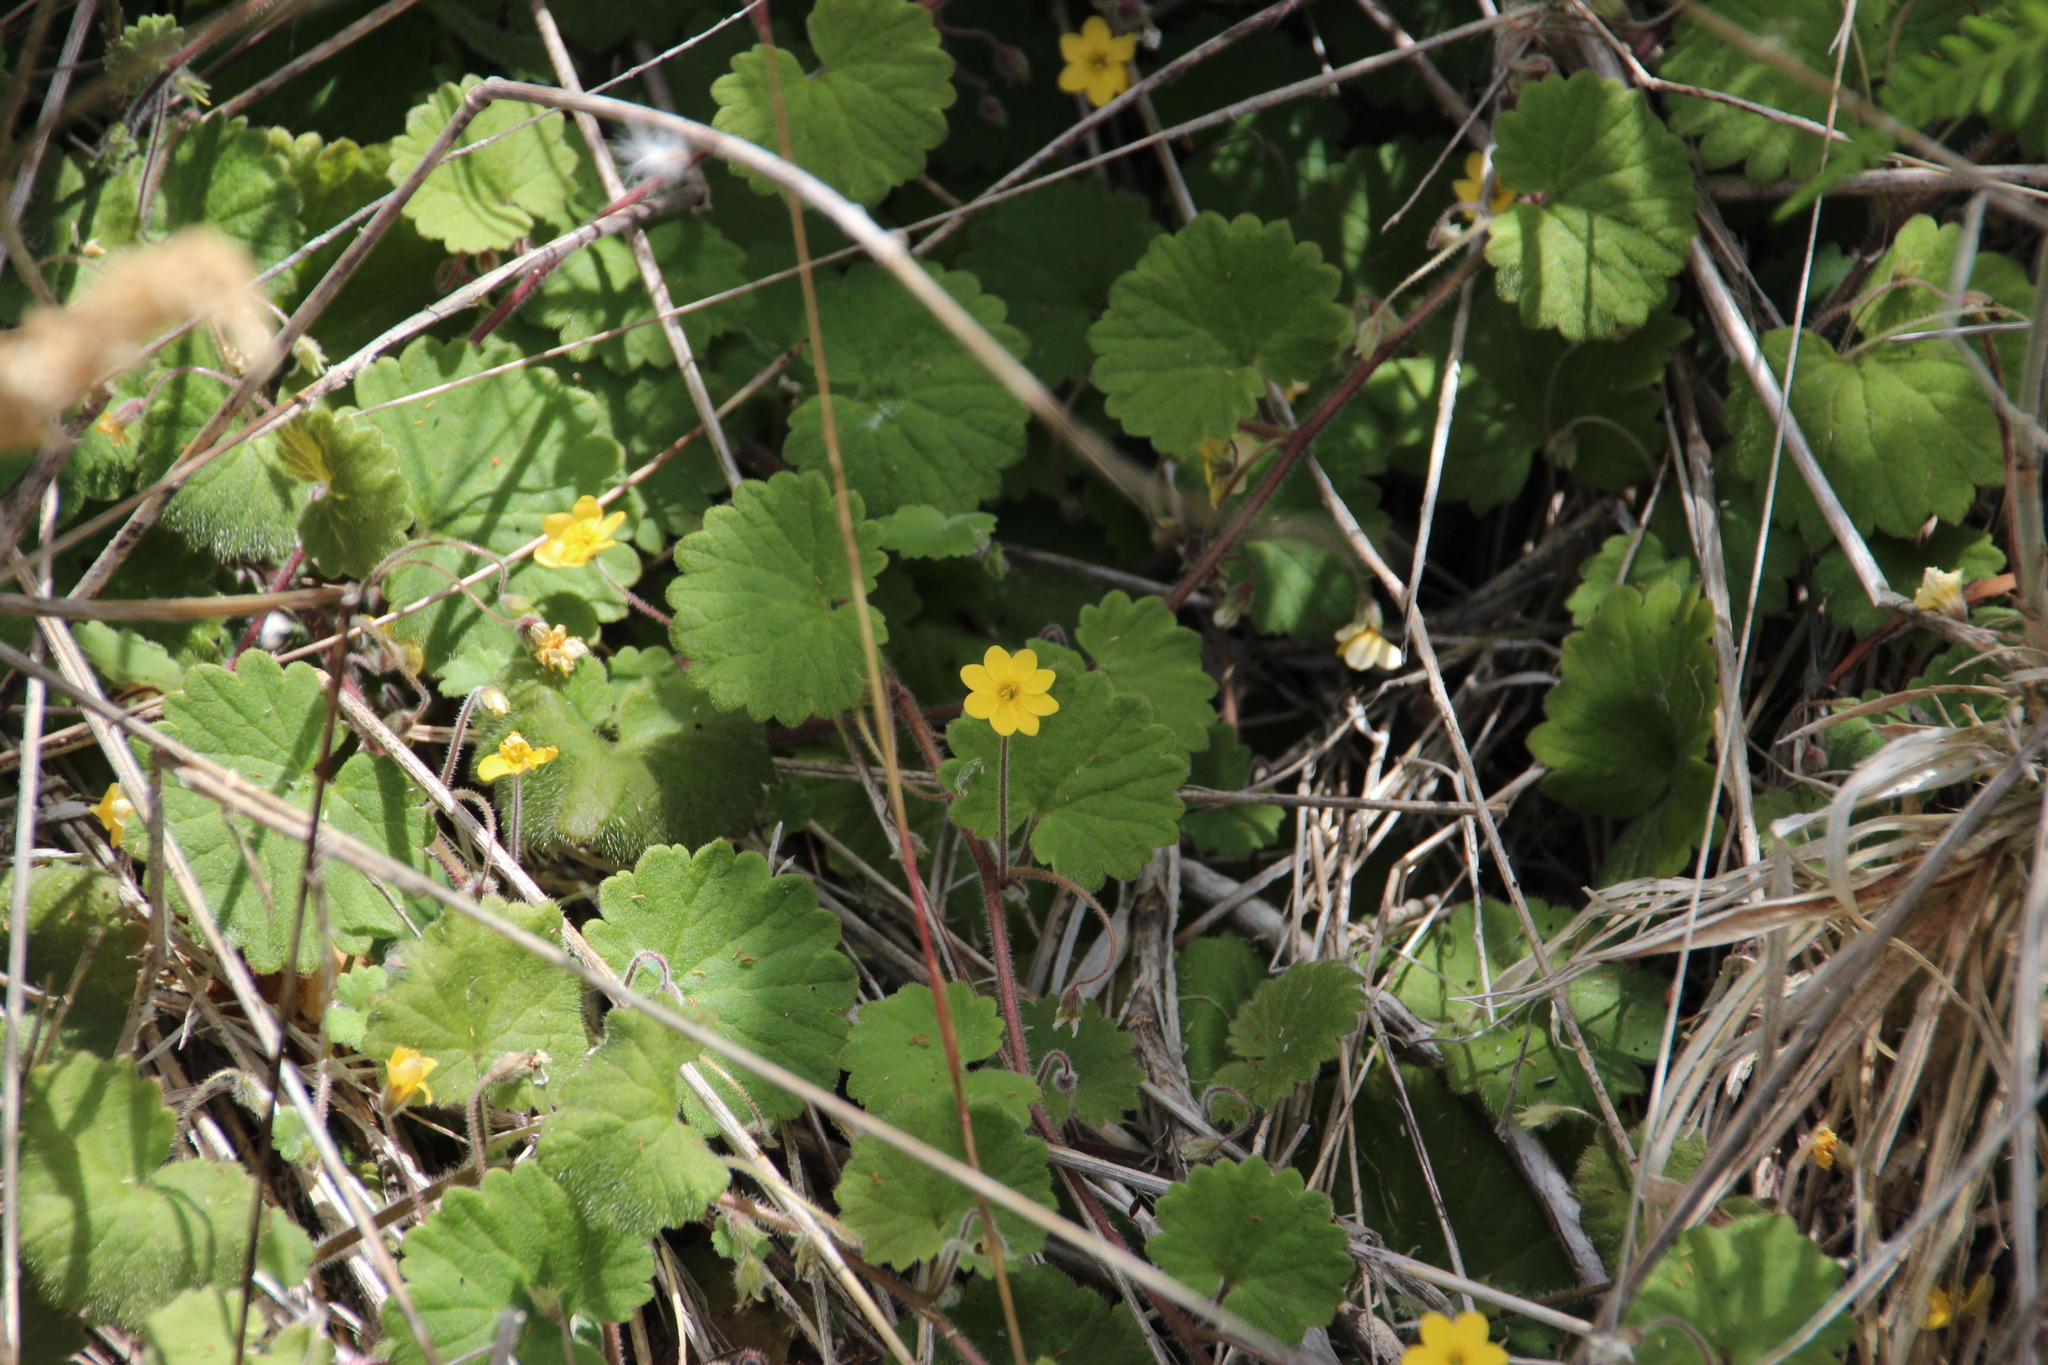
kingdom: Plantae
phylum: Tracheophyta
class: Magnoliopsida
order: Lamiales
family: Plantaginaceae
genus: Sibthorpia
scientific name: Sibthorpia peregrina
